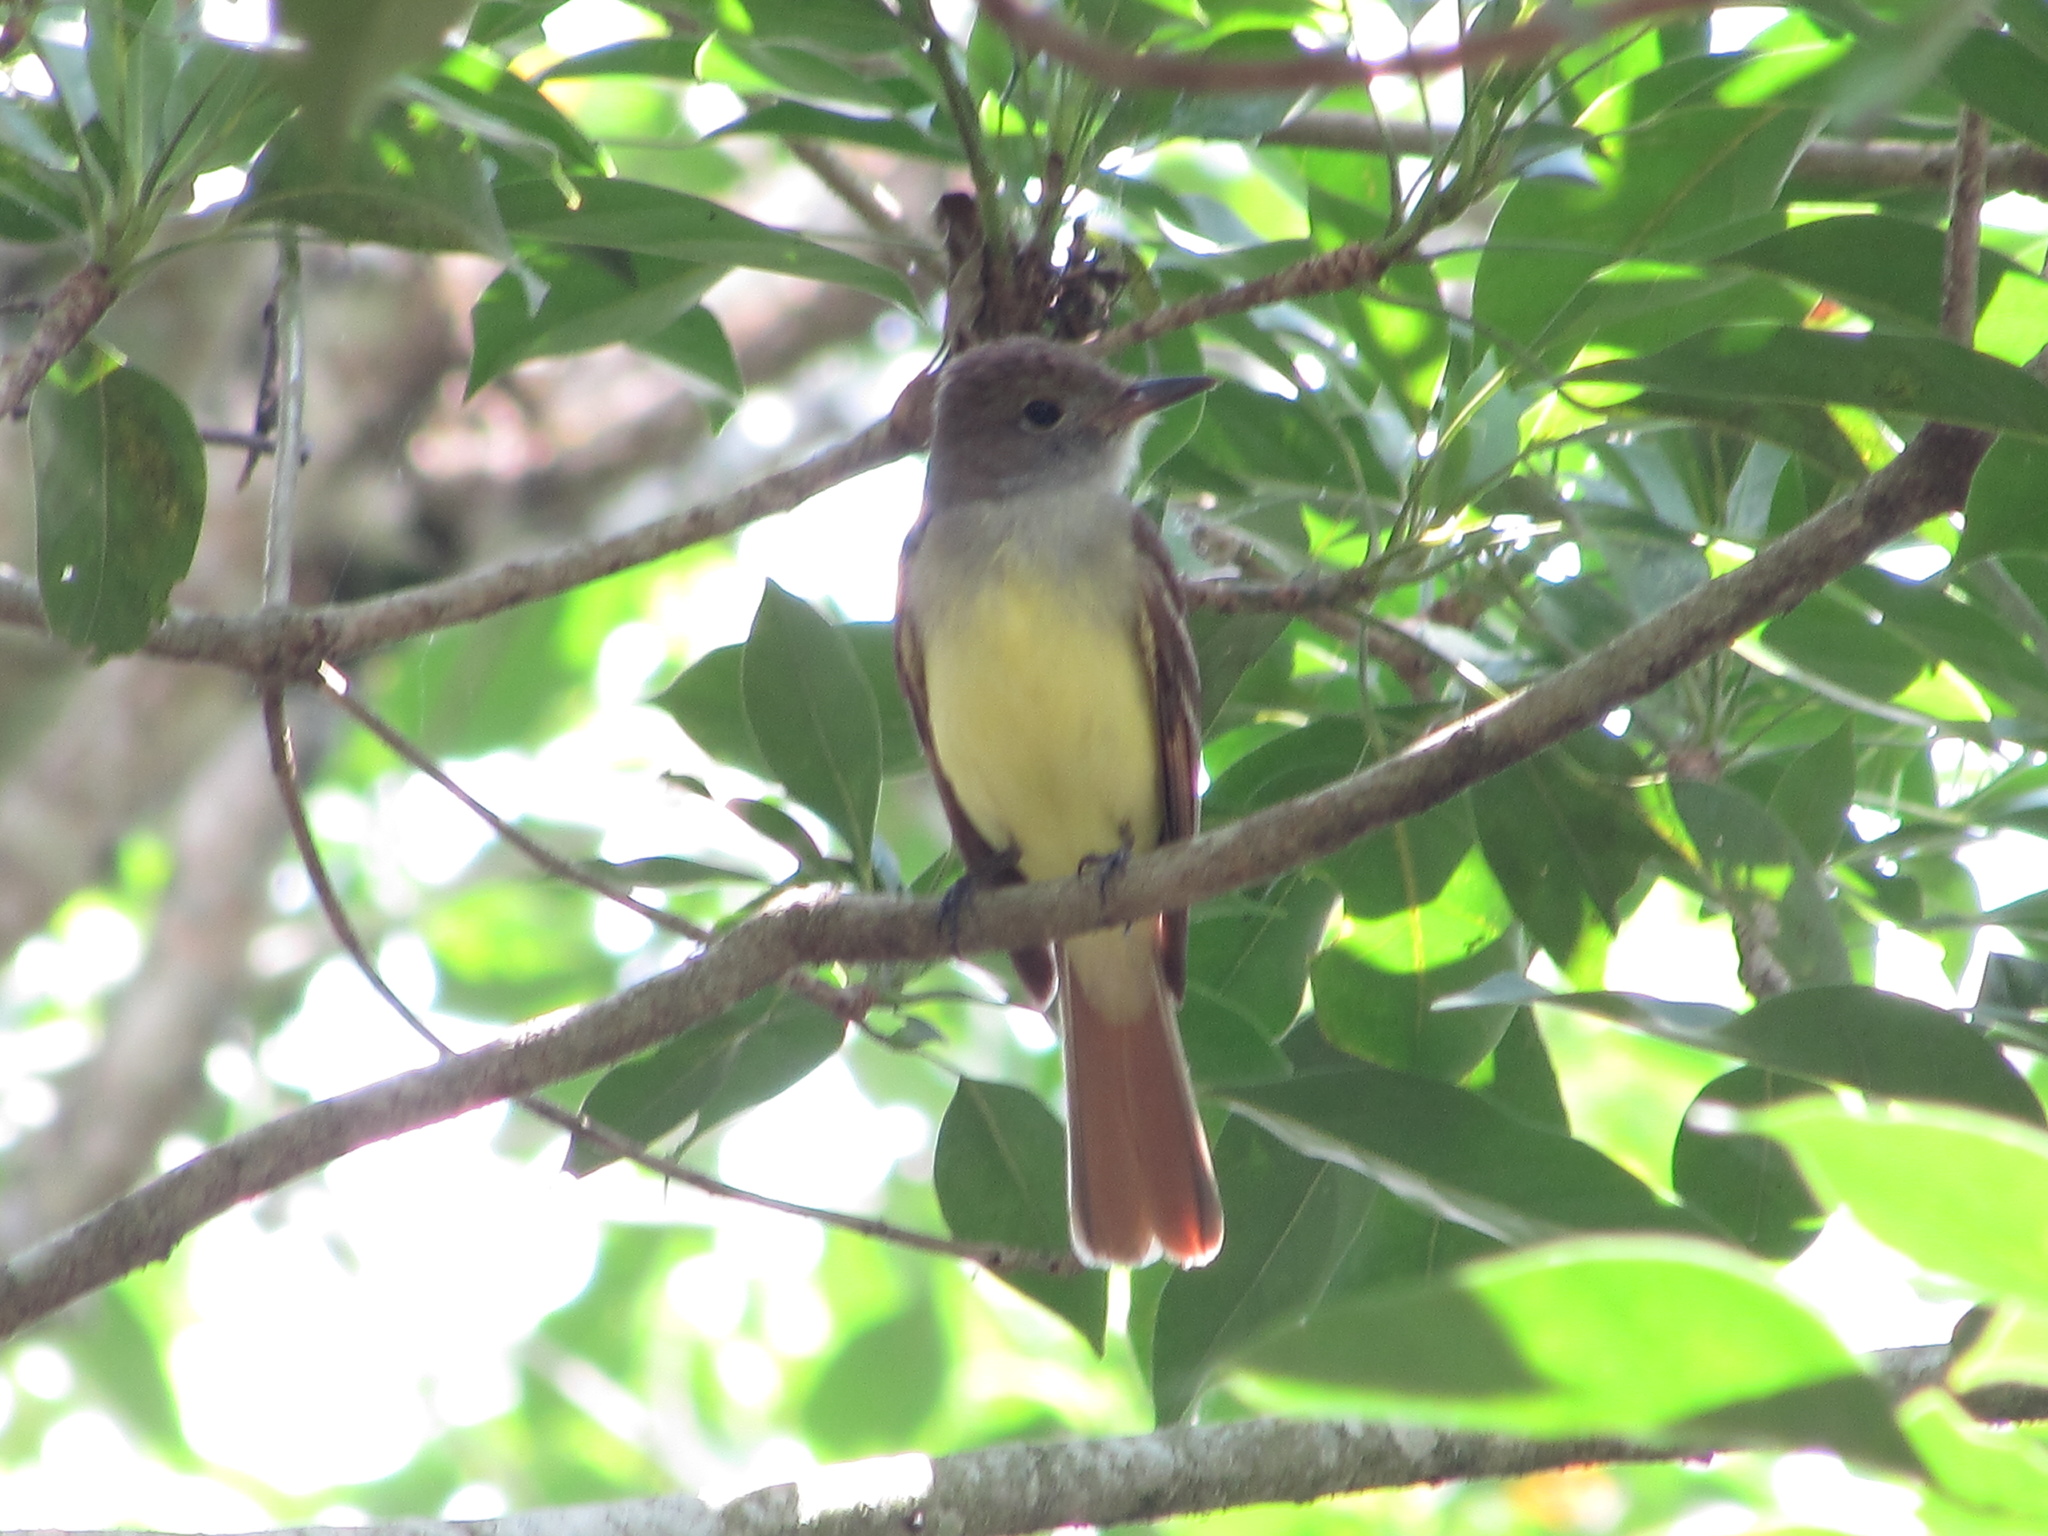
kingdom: Animalia
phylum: Chordata
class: Aves
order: Passeriformes
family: Tyrannidae
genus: Myiarchus
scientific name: Myiarchus crinitus
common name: Great crested flycatcher
